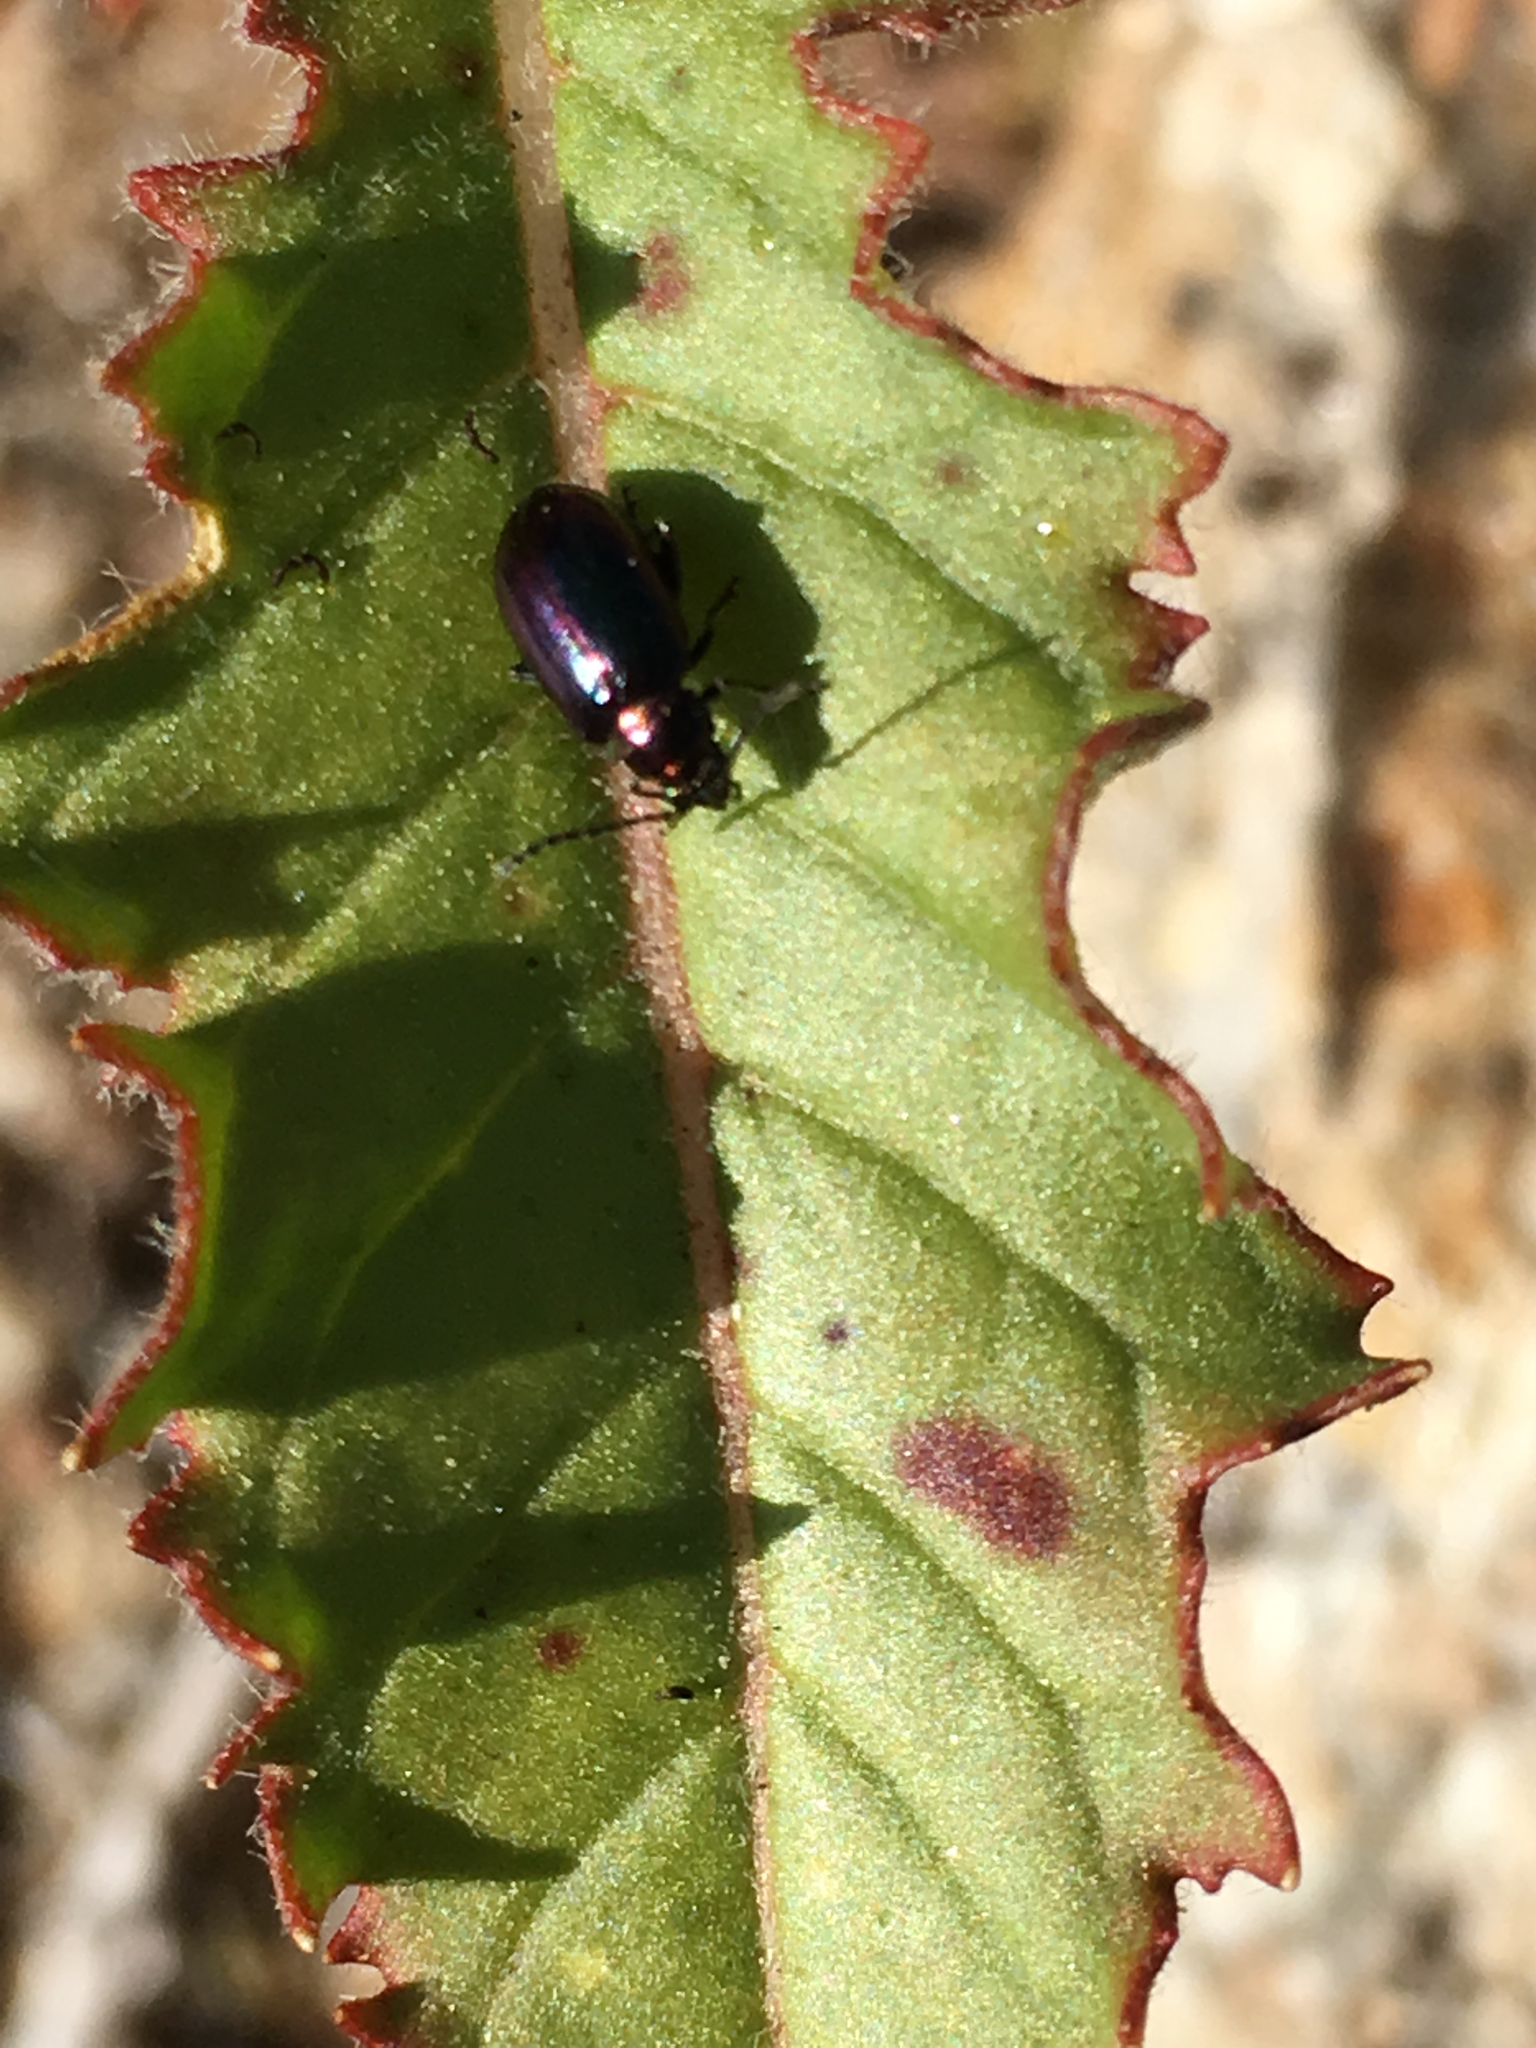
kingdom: Animalia
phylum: Arthropoda
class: Insecta
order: Coleoptera
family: Chrysomelidae
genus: Altica
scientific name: Altica torquata
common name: Leaf beetle
